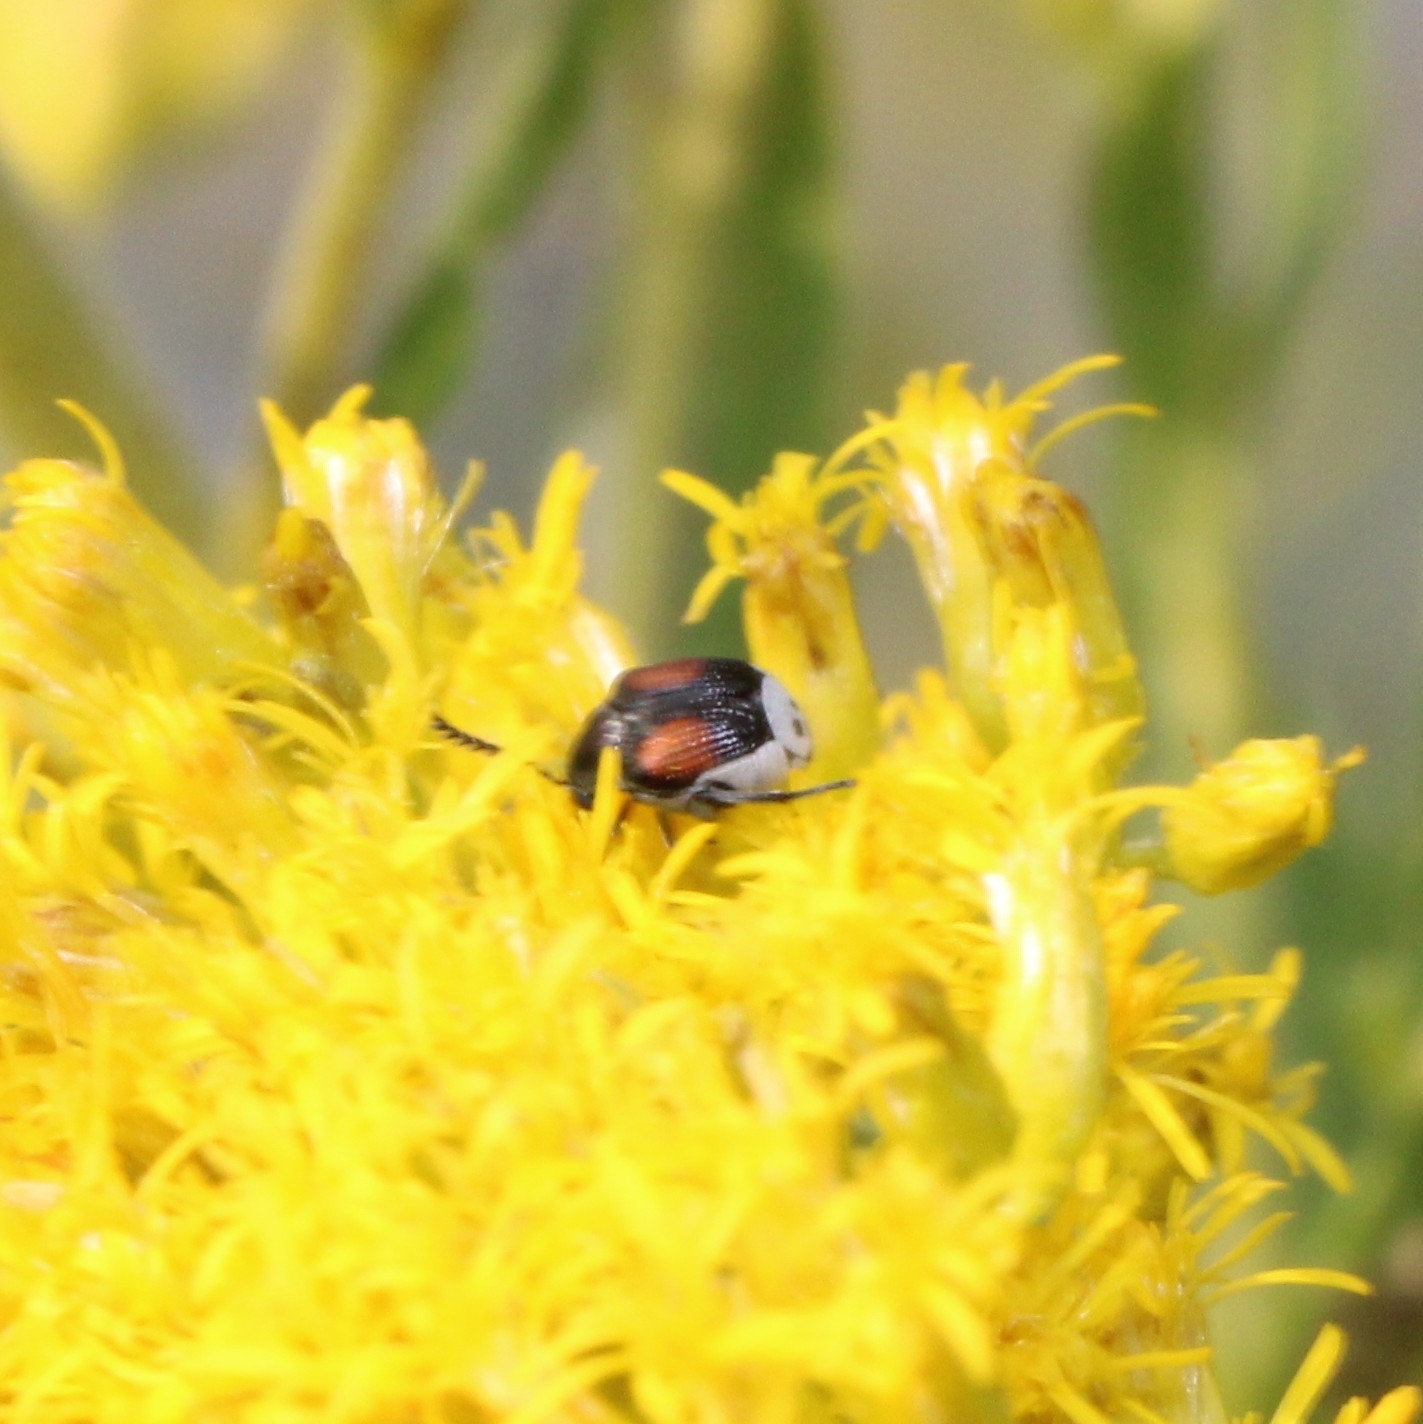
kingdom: Animalia
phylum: Arthropoda
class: Insecta
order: Coleoptera
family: Chrysomelidae
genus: Megacerus
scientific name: Megacerus discoidus
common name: Red megacerus
